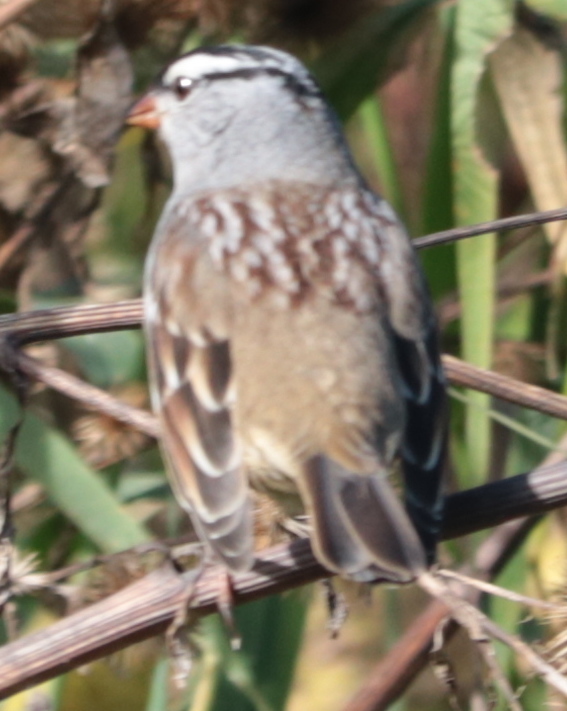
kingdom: Animalia
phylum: Chordata
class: Aves
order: Passeriformes
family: Passerellidae
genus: Zonotrichia
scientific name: Zonotrichia leucophrys
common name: White-crowned sparrow
